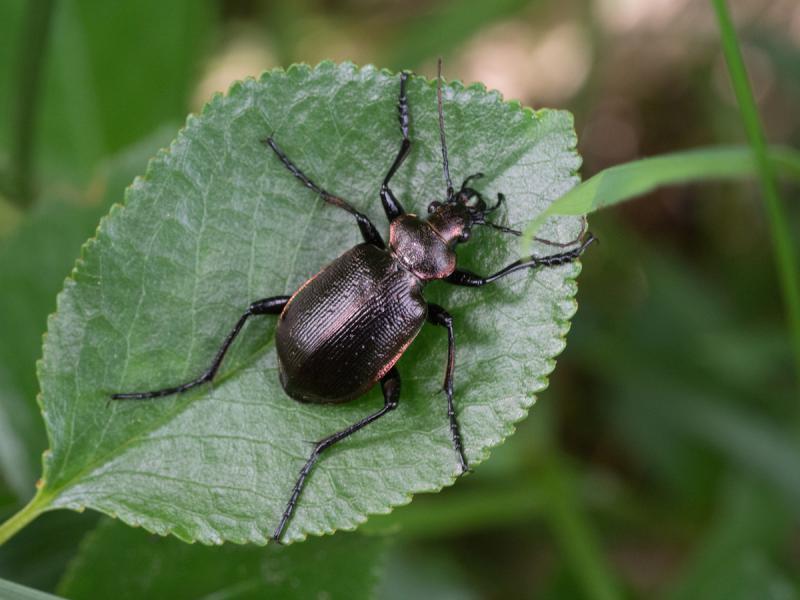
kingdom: Animalia
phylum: Arthropoda
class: Insecta
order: Coleoptera
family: Carabidae
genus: Calosoma
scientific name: Calosoma inquisitor
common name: Caterpillar-hunter
